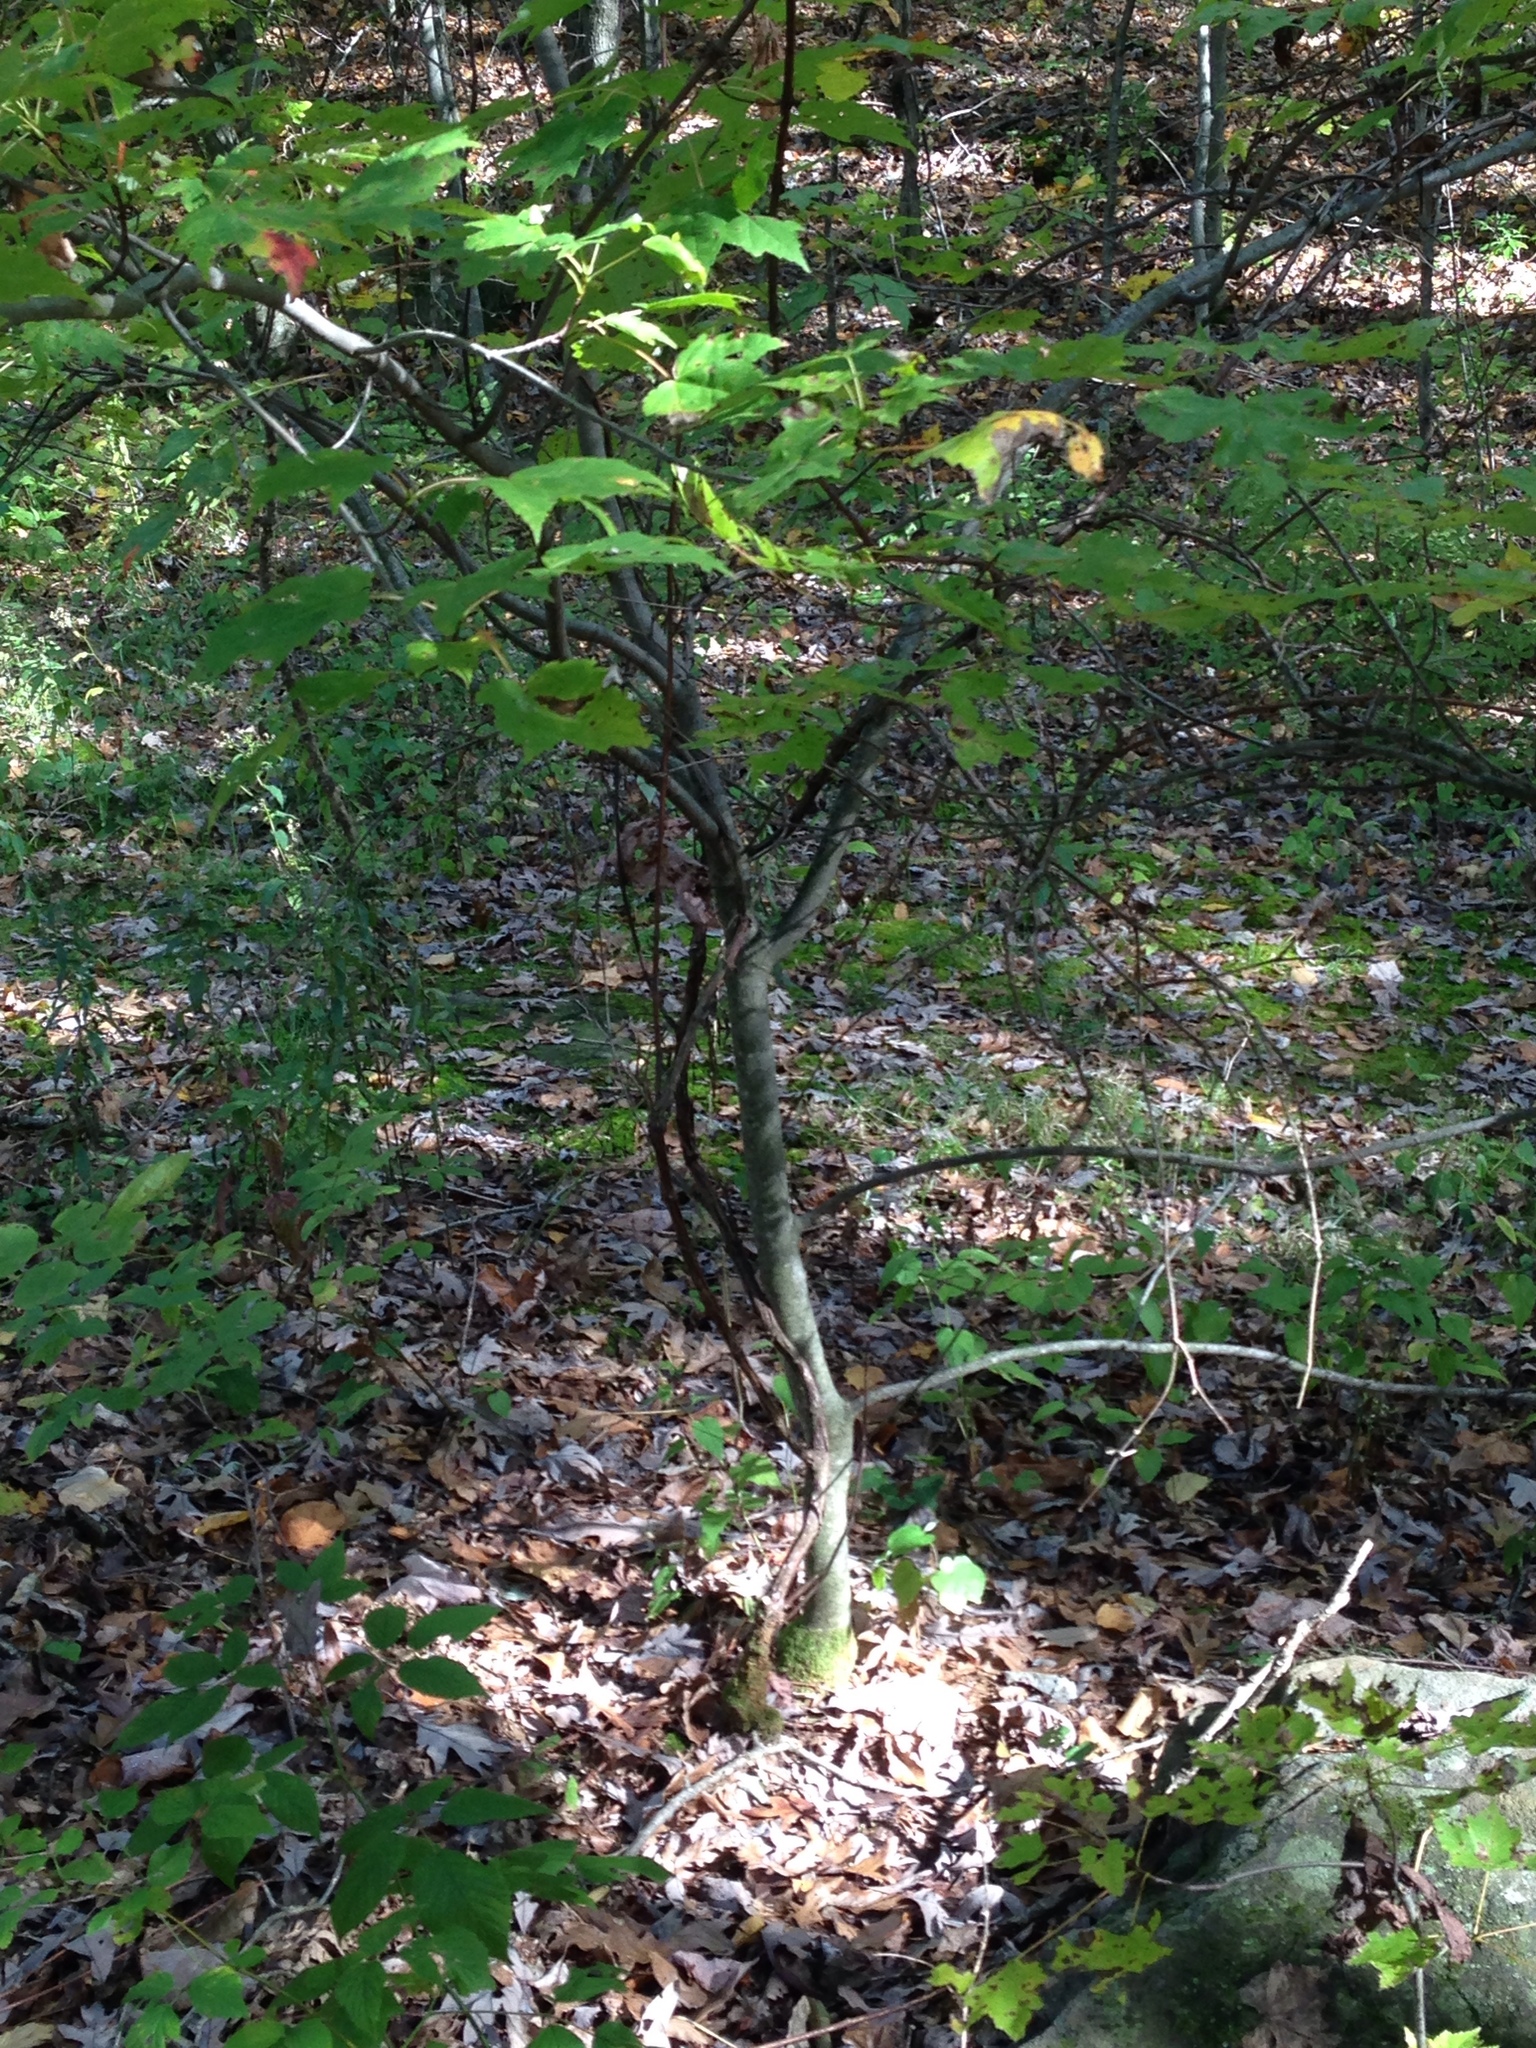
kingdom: Plantae
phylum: Tracheophyta
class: Magnoliopsida
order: Sapindales
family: Sapindaceae
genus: Acer
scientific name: Acer rubrum
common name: Red maple
